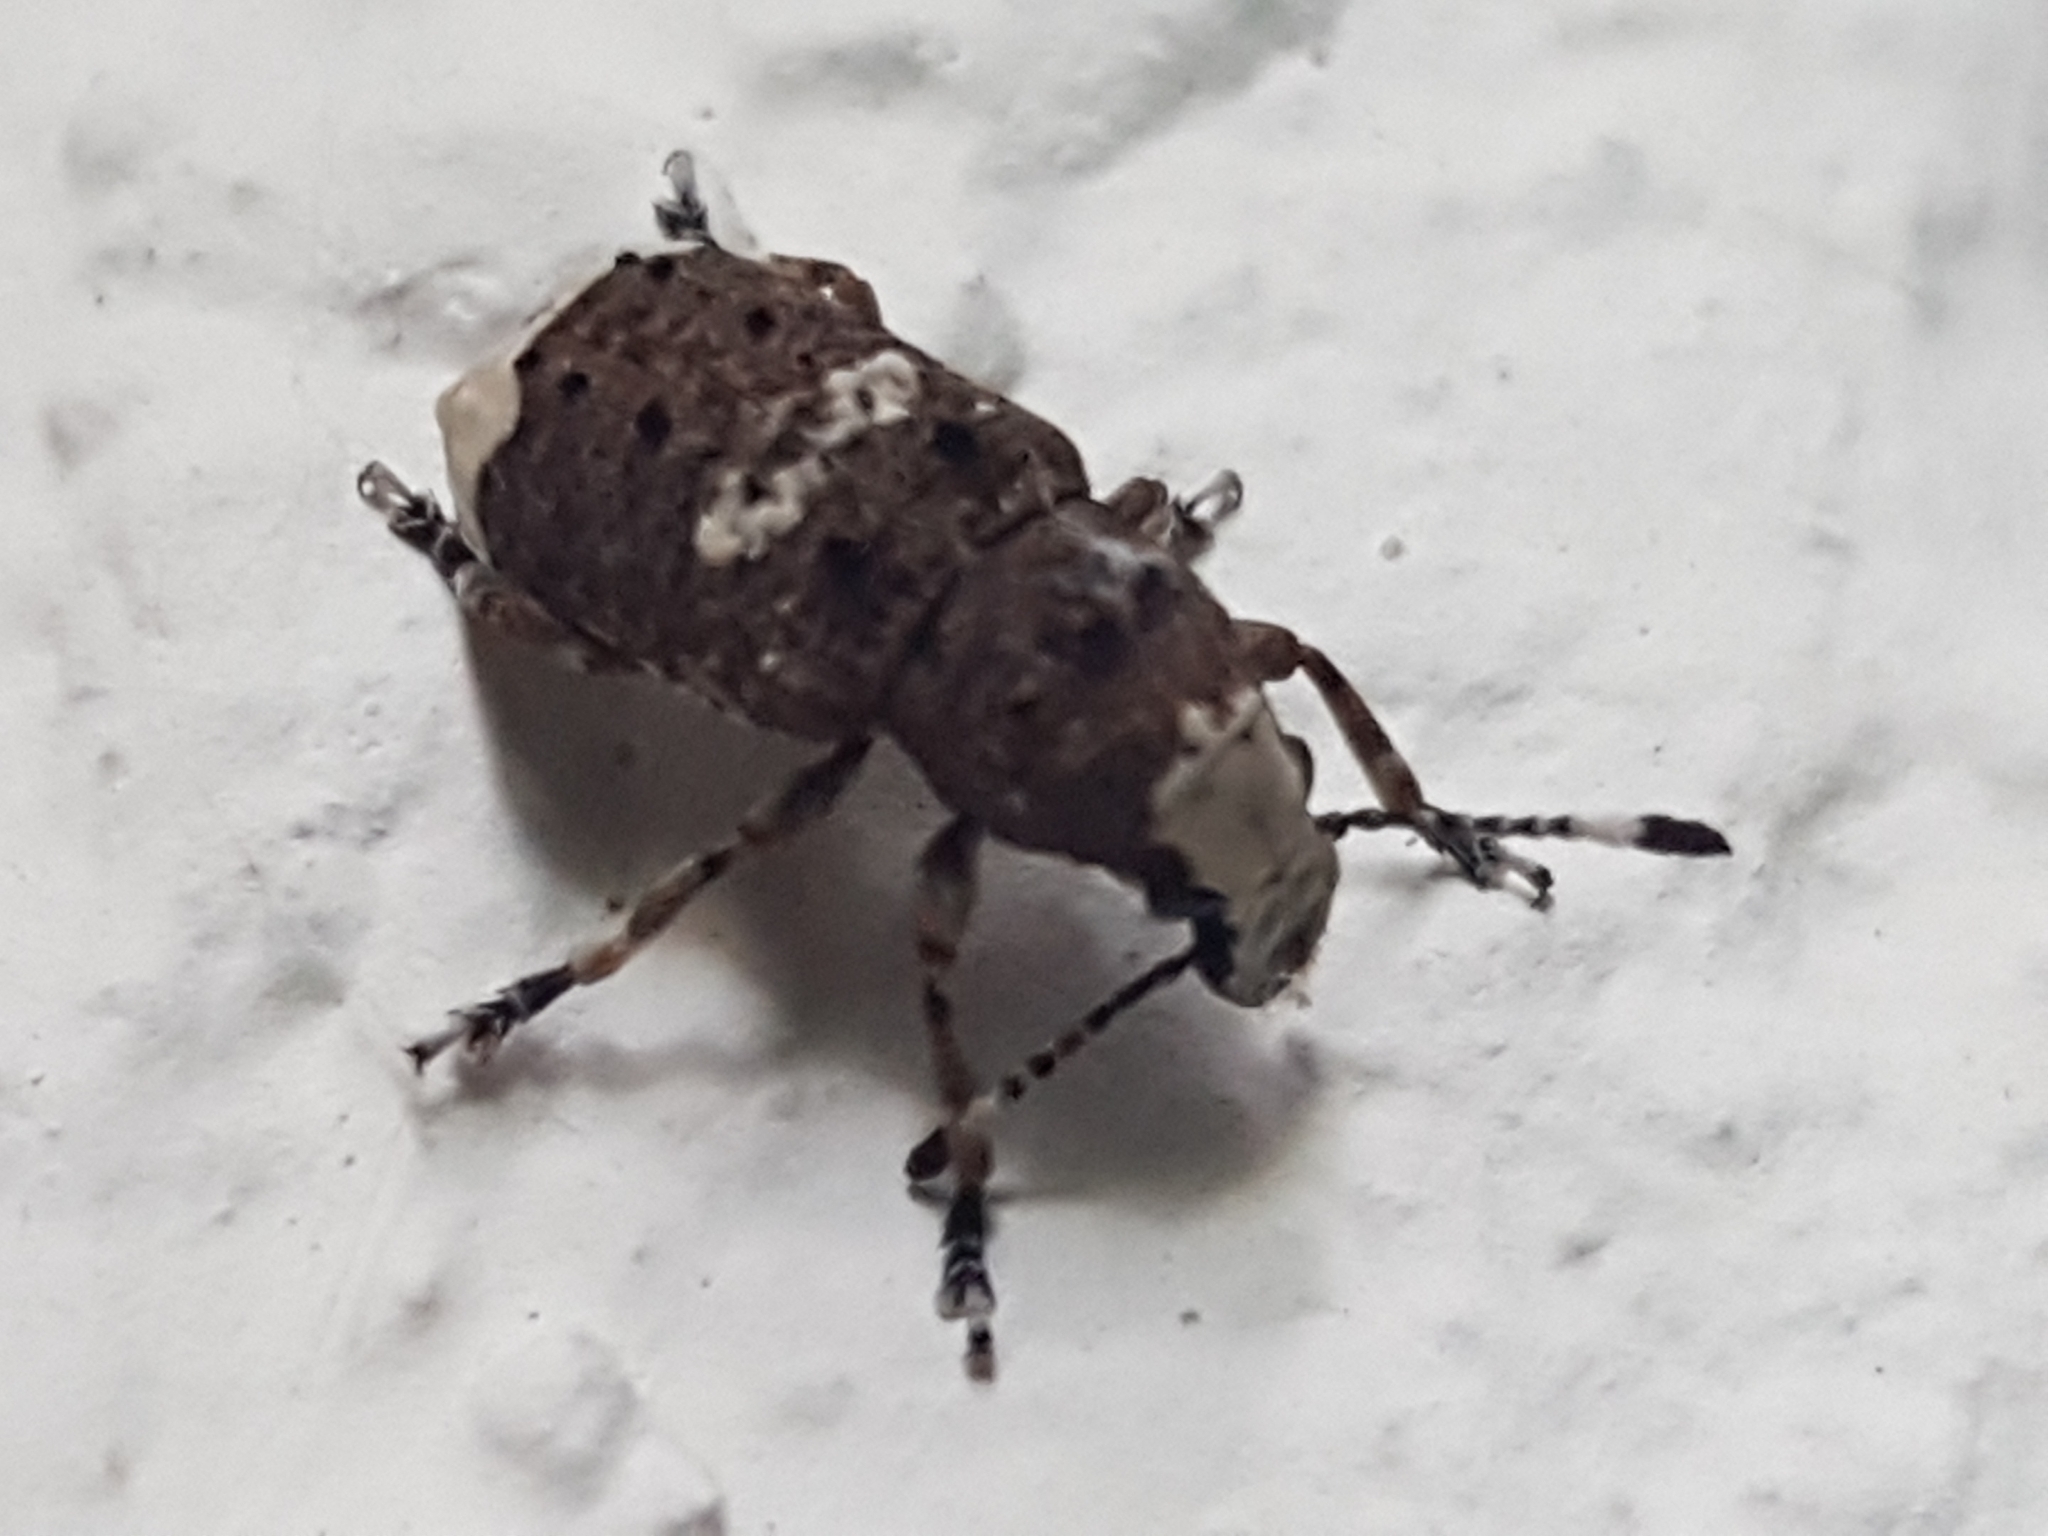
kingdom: Animalia
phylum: Arthropoda
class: Insecta
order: Coleoptera
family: Anthribidae
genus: Platystomos
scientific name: Platystomos albinus
